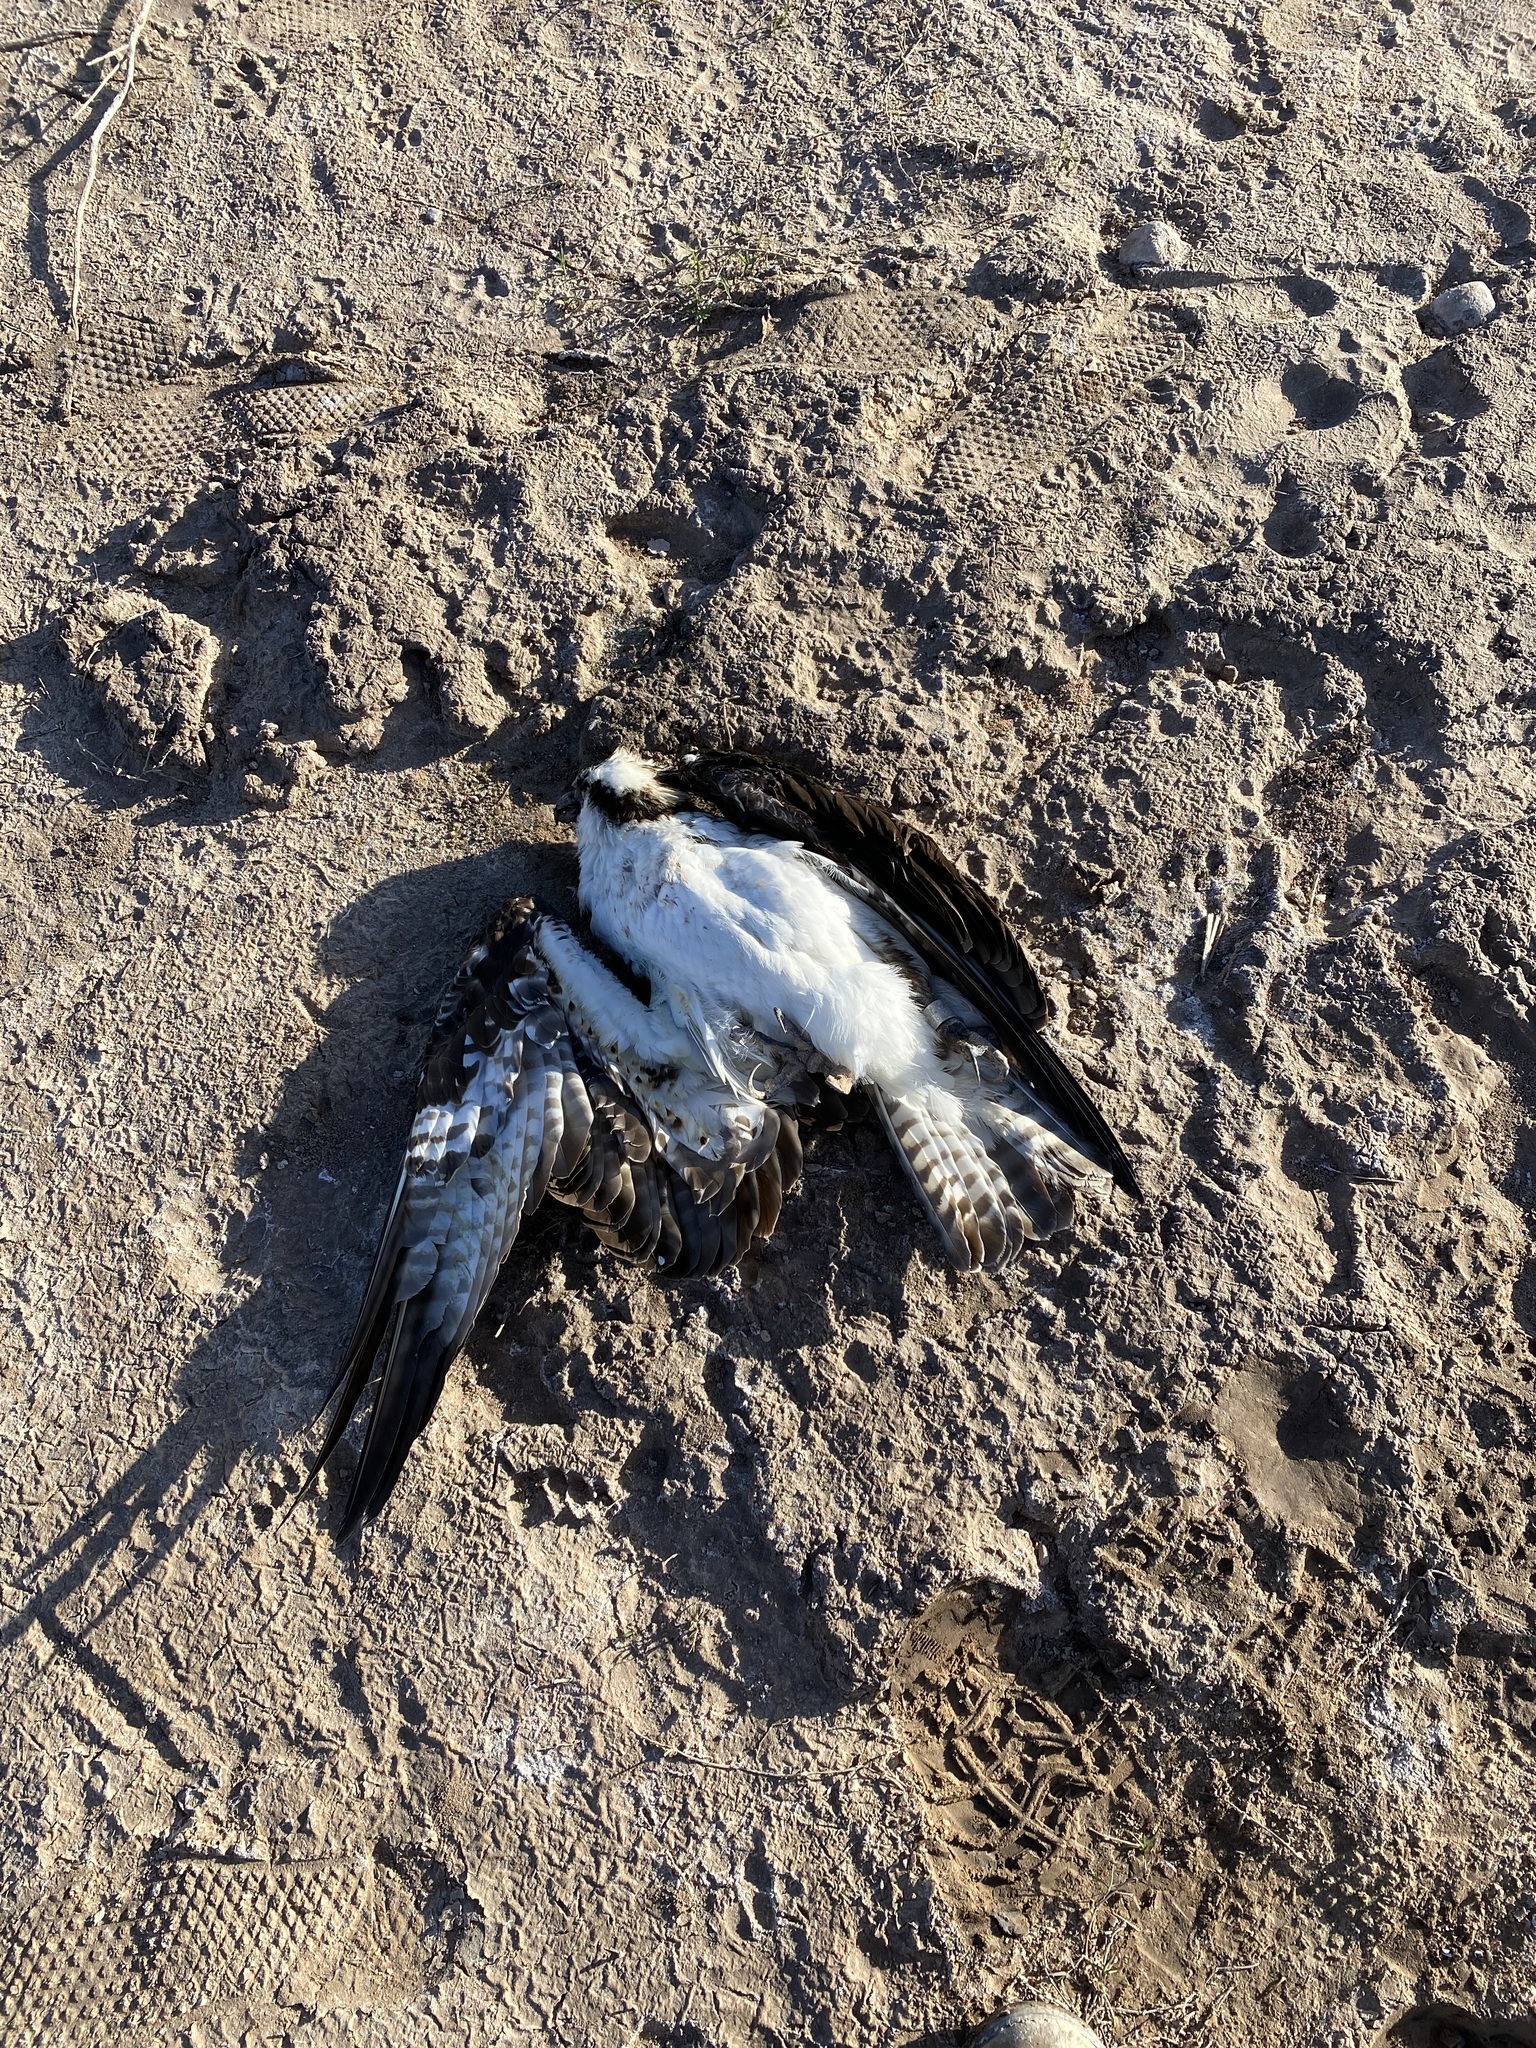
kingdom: Animalia
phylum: Chordata
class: Aves
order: Accipitriformes
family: Pandionidae
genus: Pandion
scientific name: Pandion haliaetus
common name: Osprey
